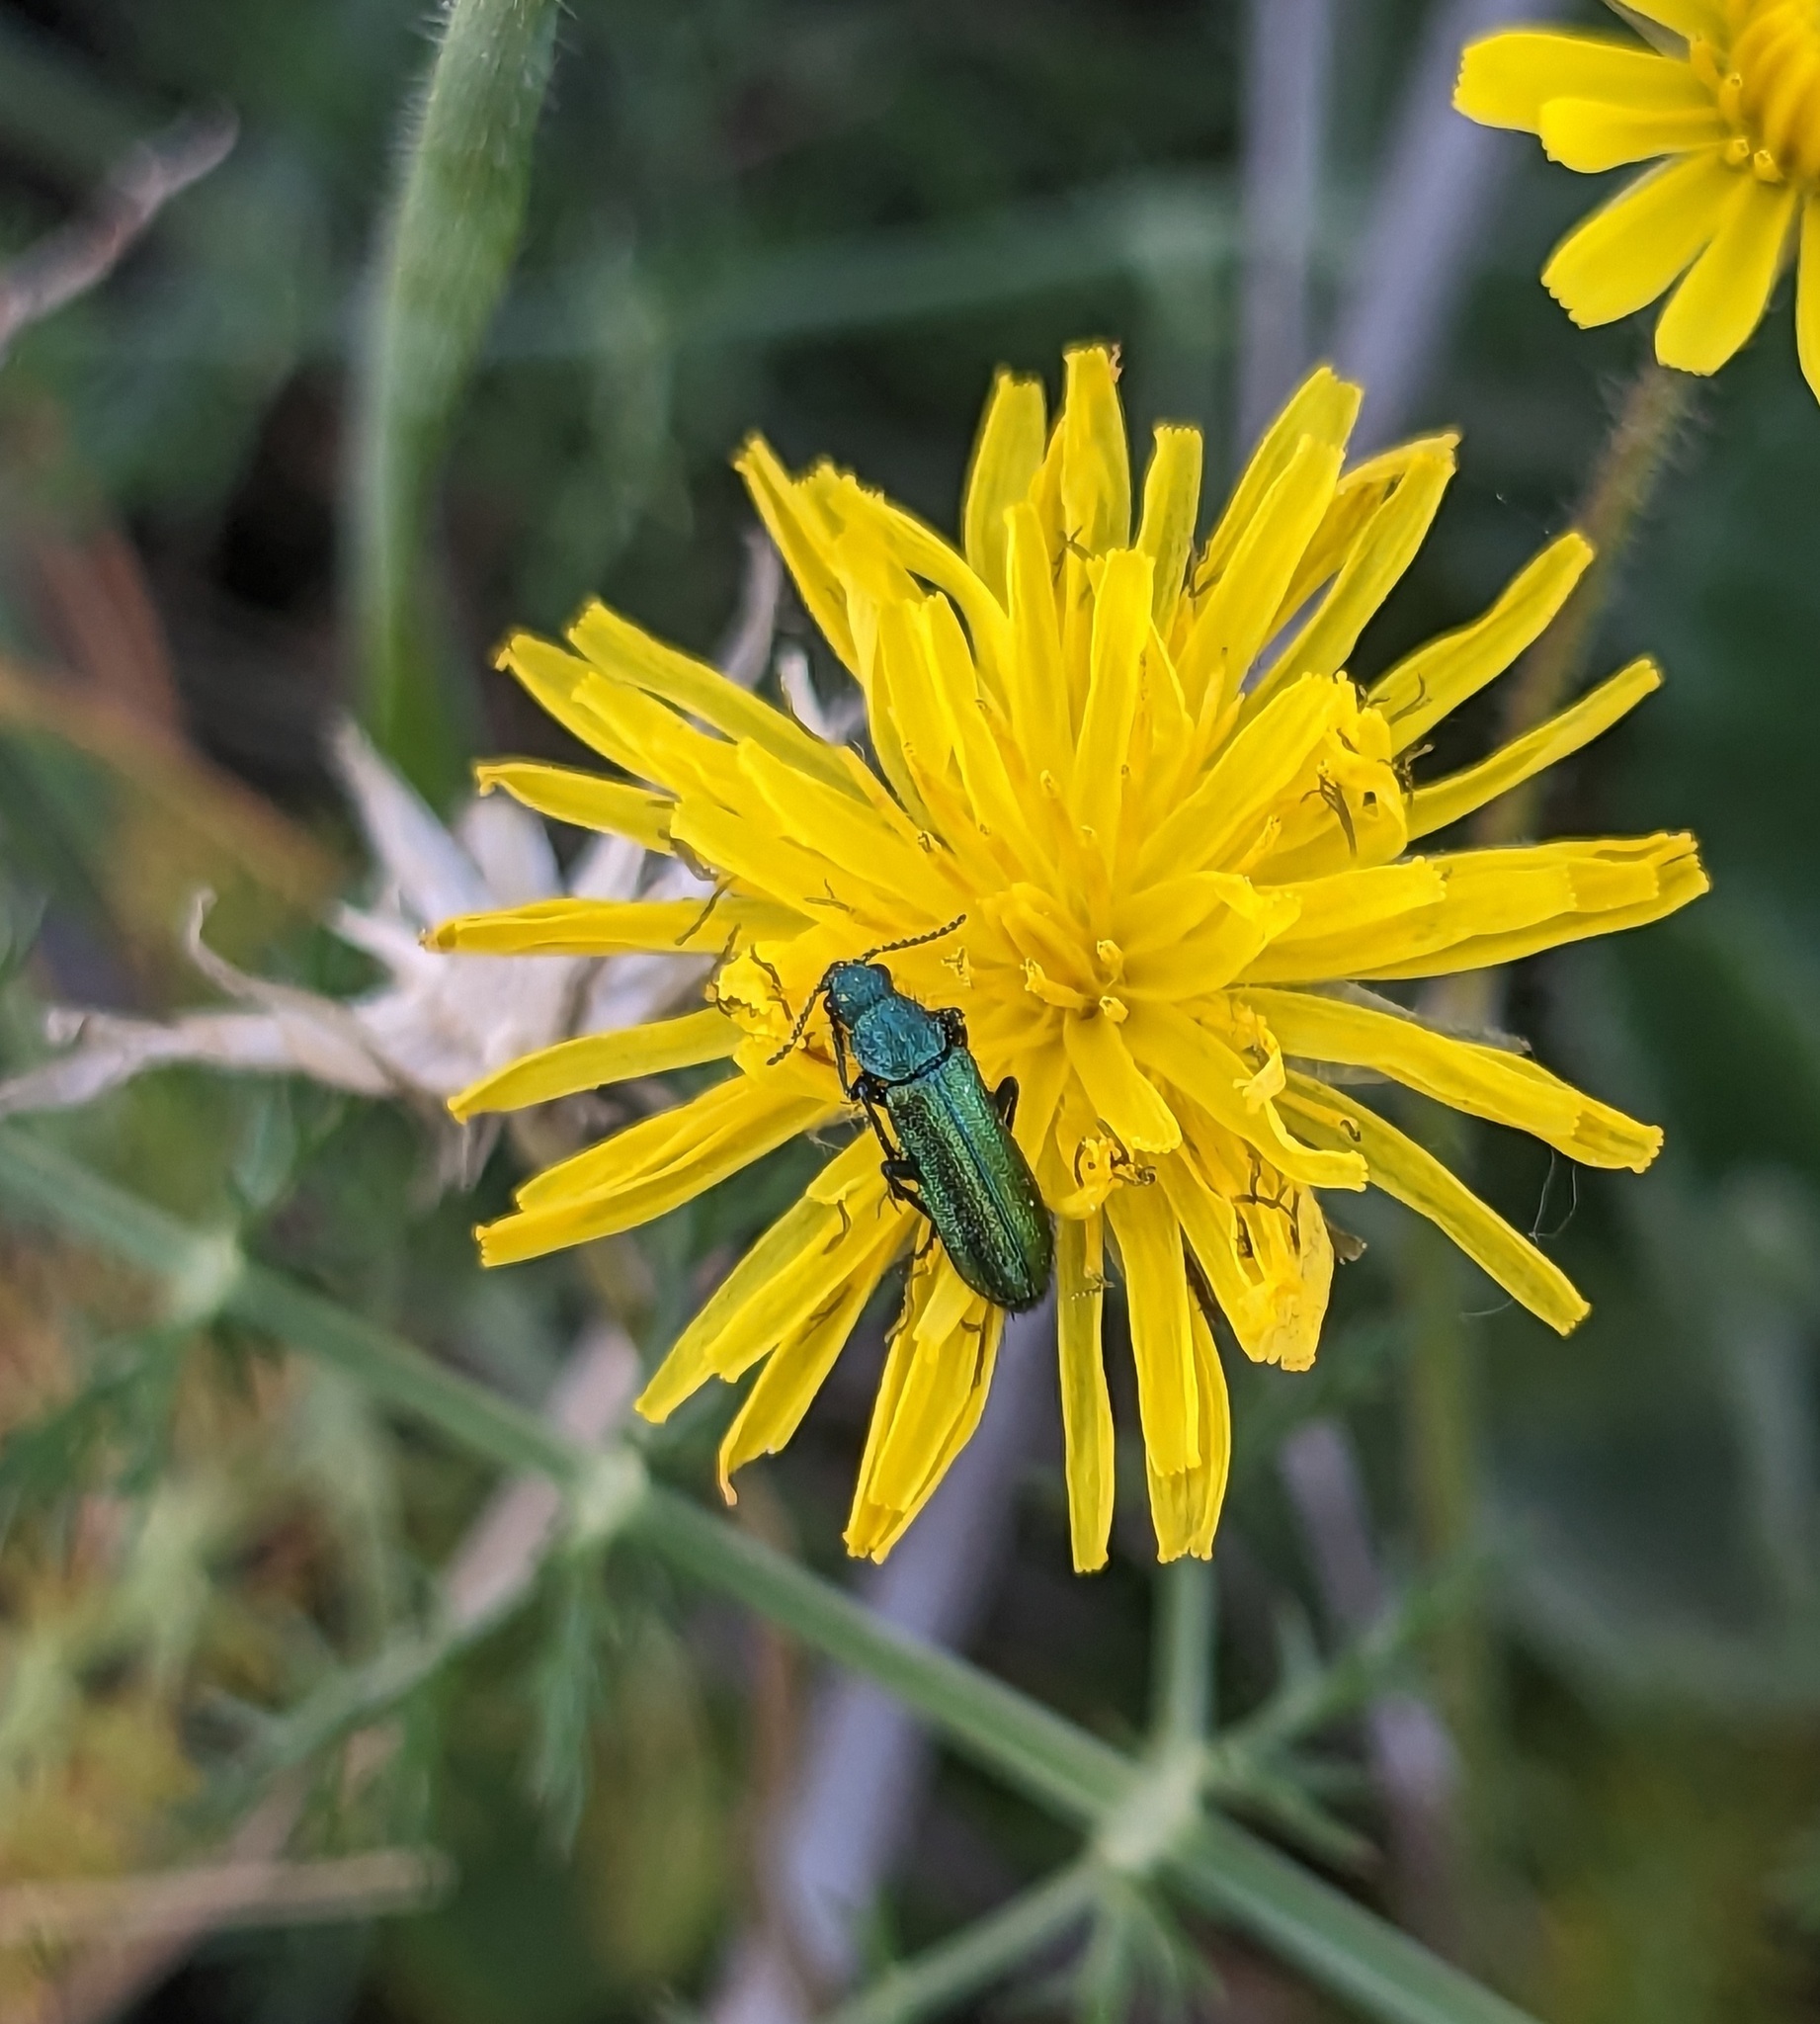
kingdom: Animalia
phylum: Arthropoda
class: Insecta
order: Coleoptera
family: Dasytidae
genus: Psilothrix
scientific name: Psilothrix viridicoerulea
